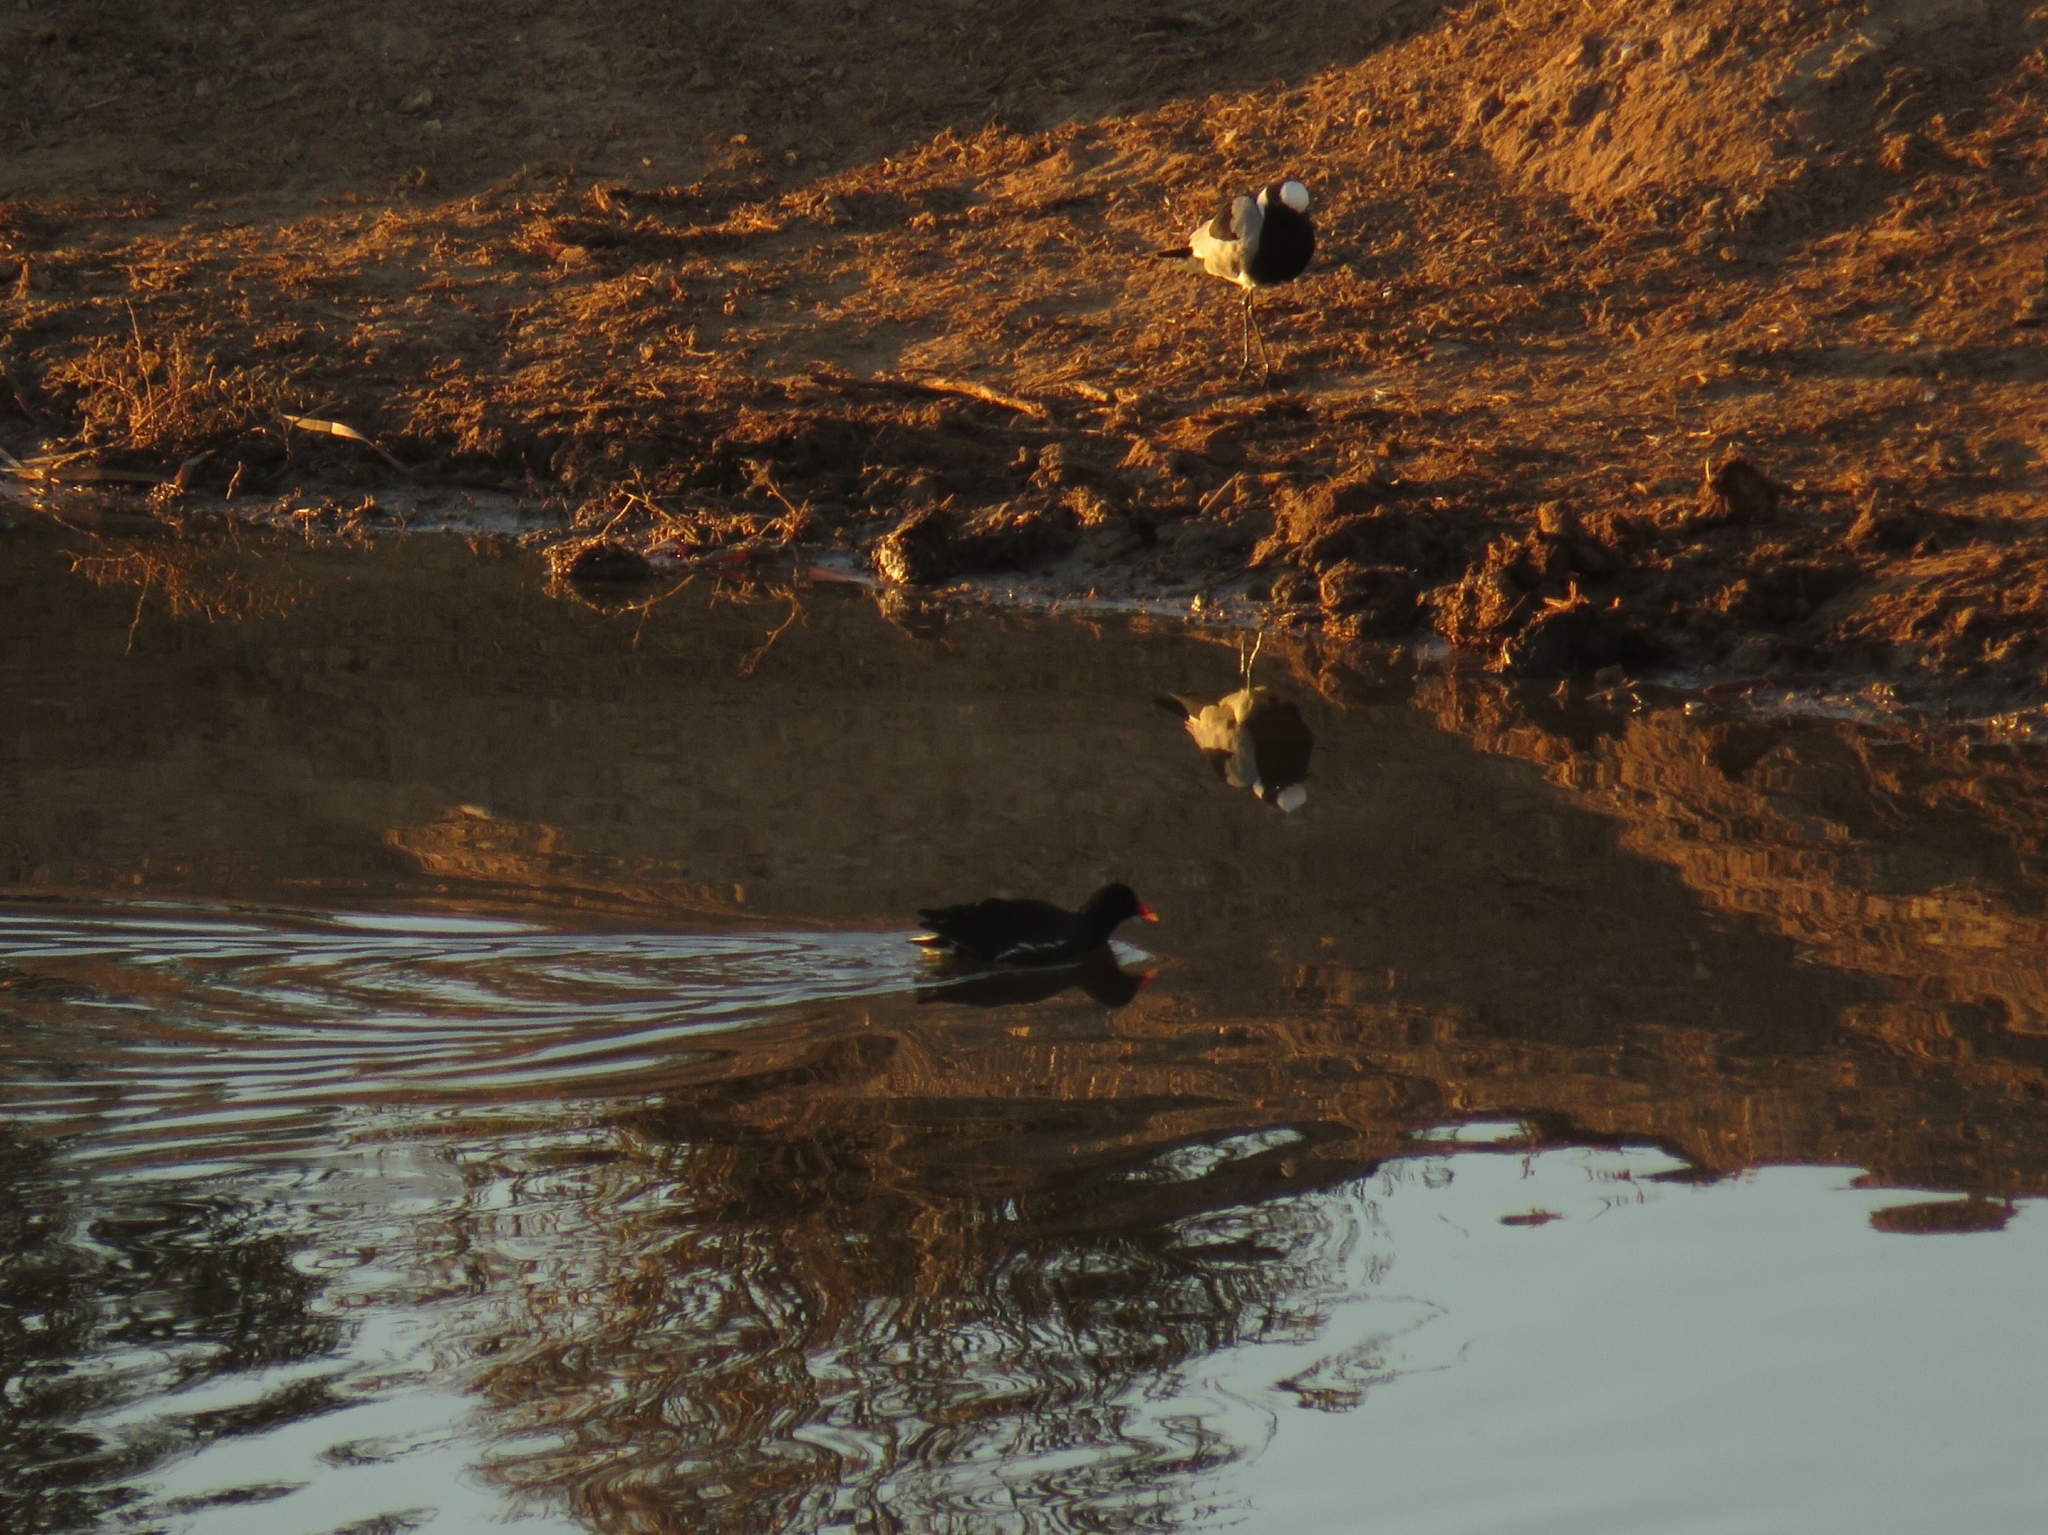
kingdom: Animalia
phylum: Chordata
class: Aves
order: Gruiformes
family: Rallidae
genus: Gallinula
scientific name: Gallinula chloropus
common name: Common moorhen
